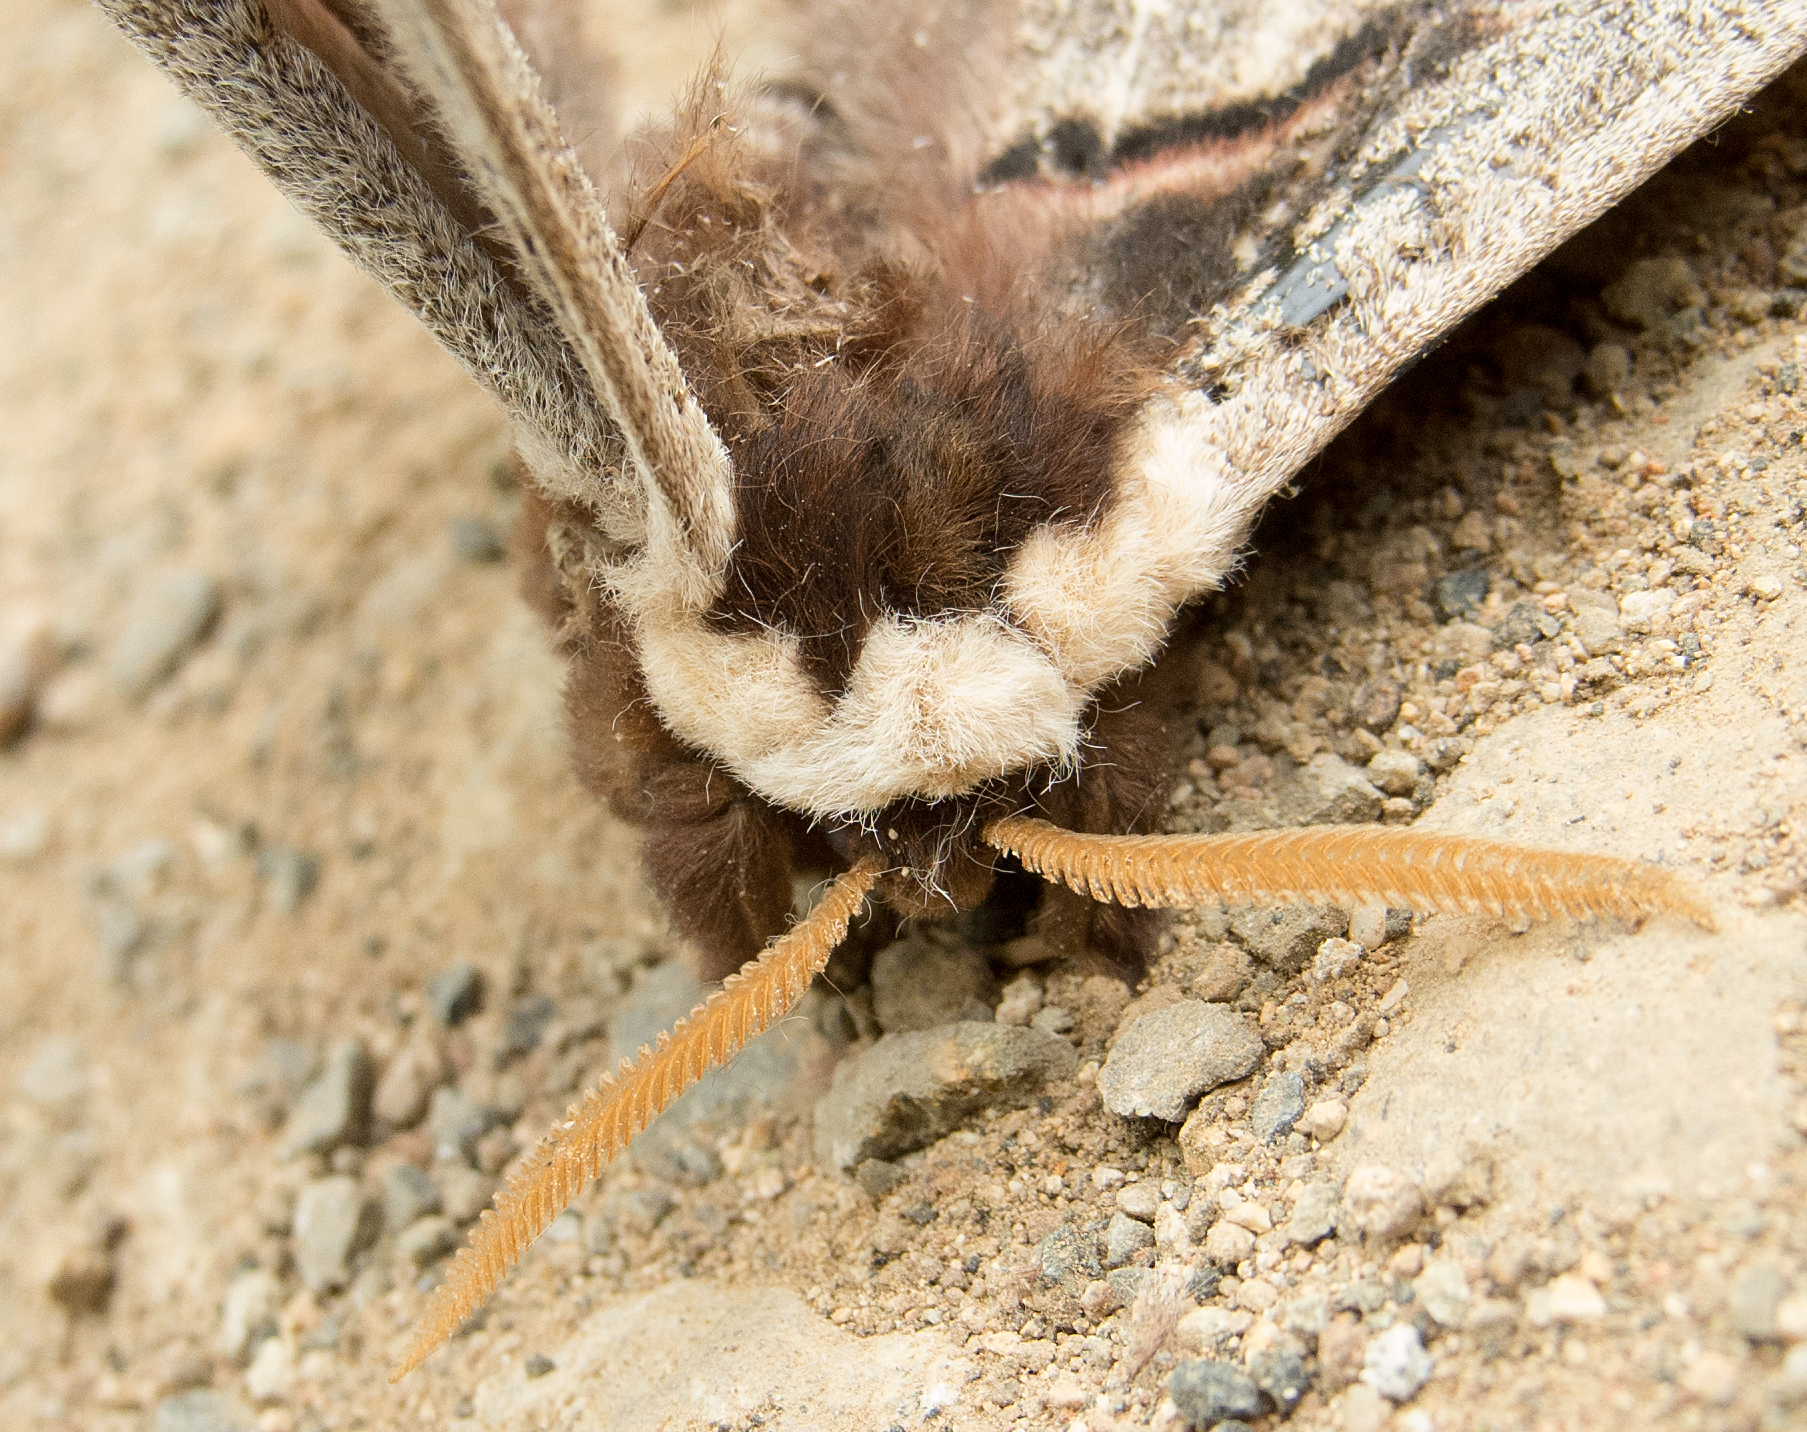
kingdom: Animalia
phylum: Arthropoda
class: Insecta
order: Lepidoptera
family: Saturniidae
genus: Saturnia
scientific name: Saturnia pyri
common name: Great peacock moth
